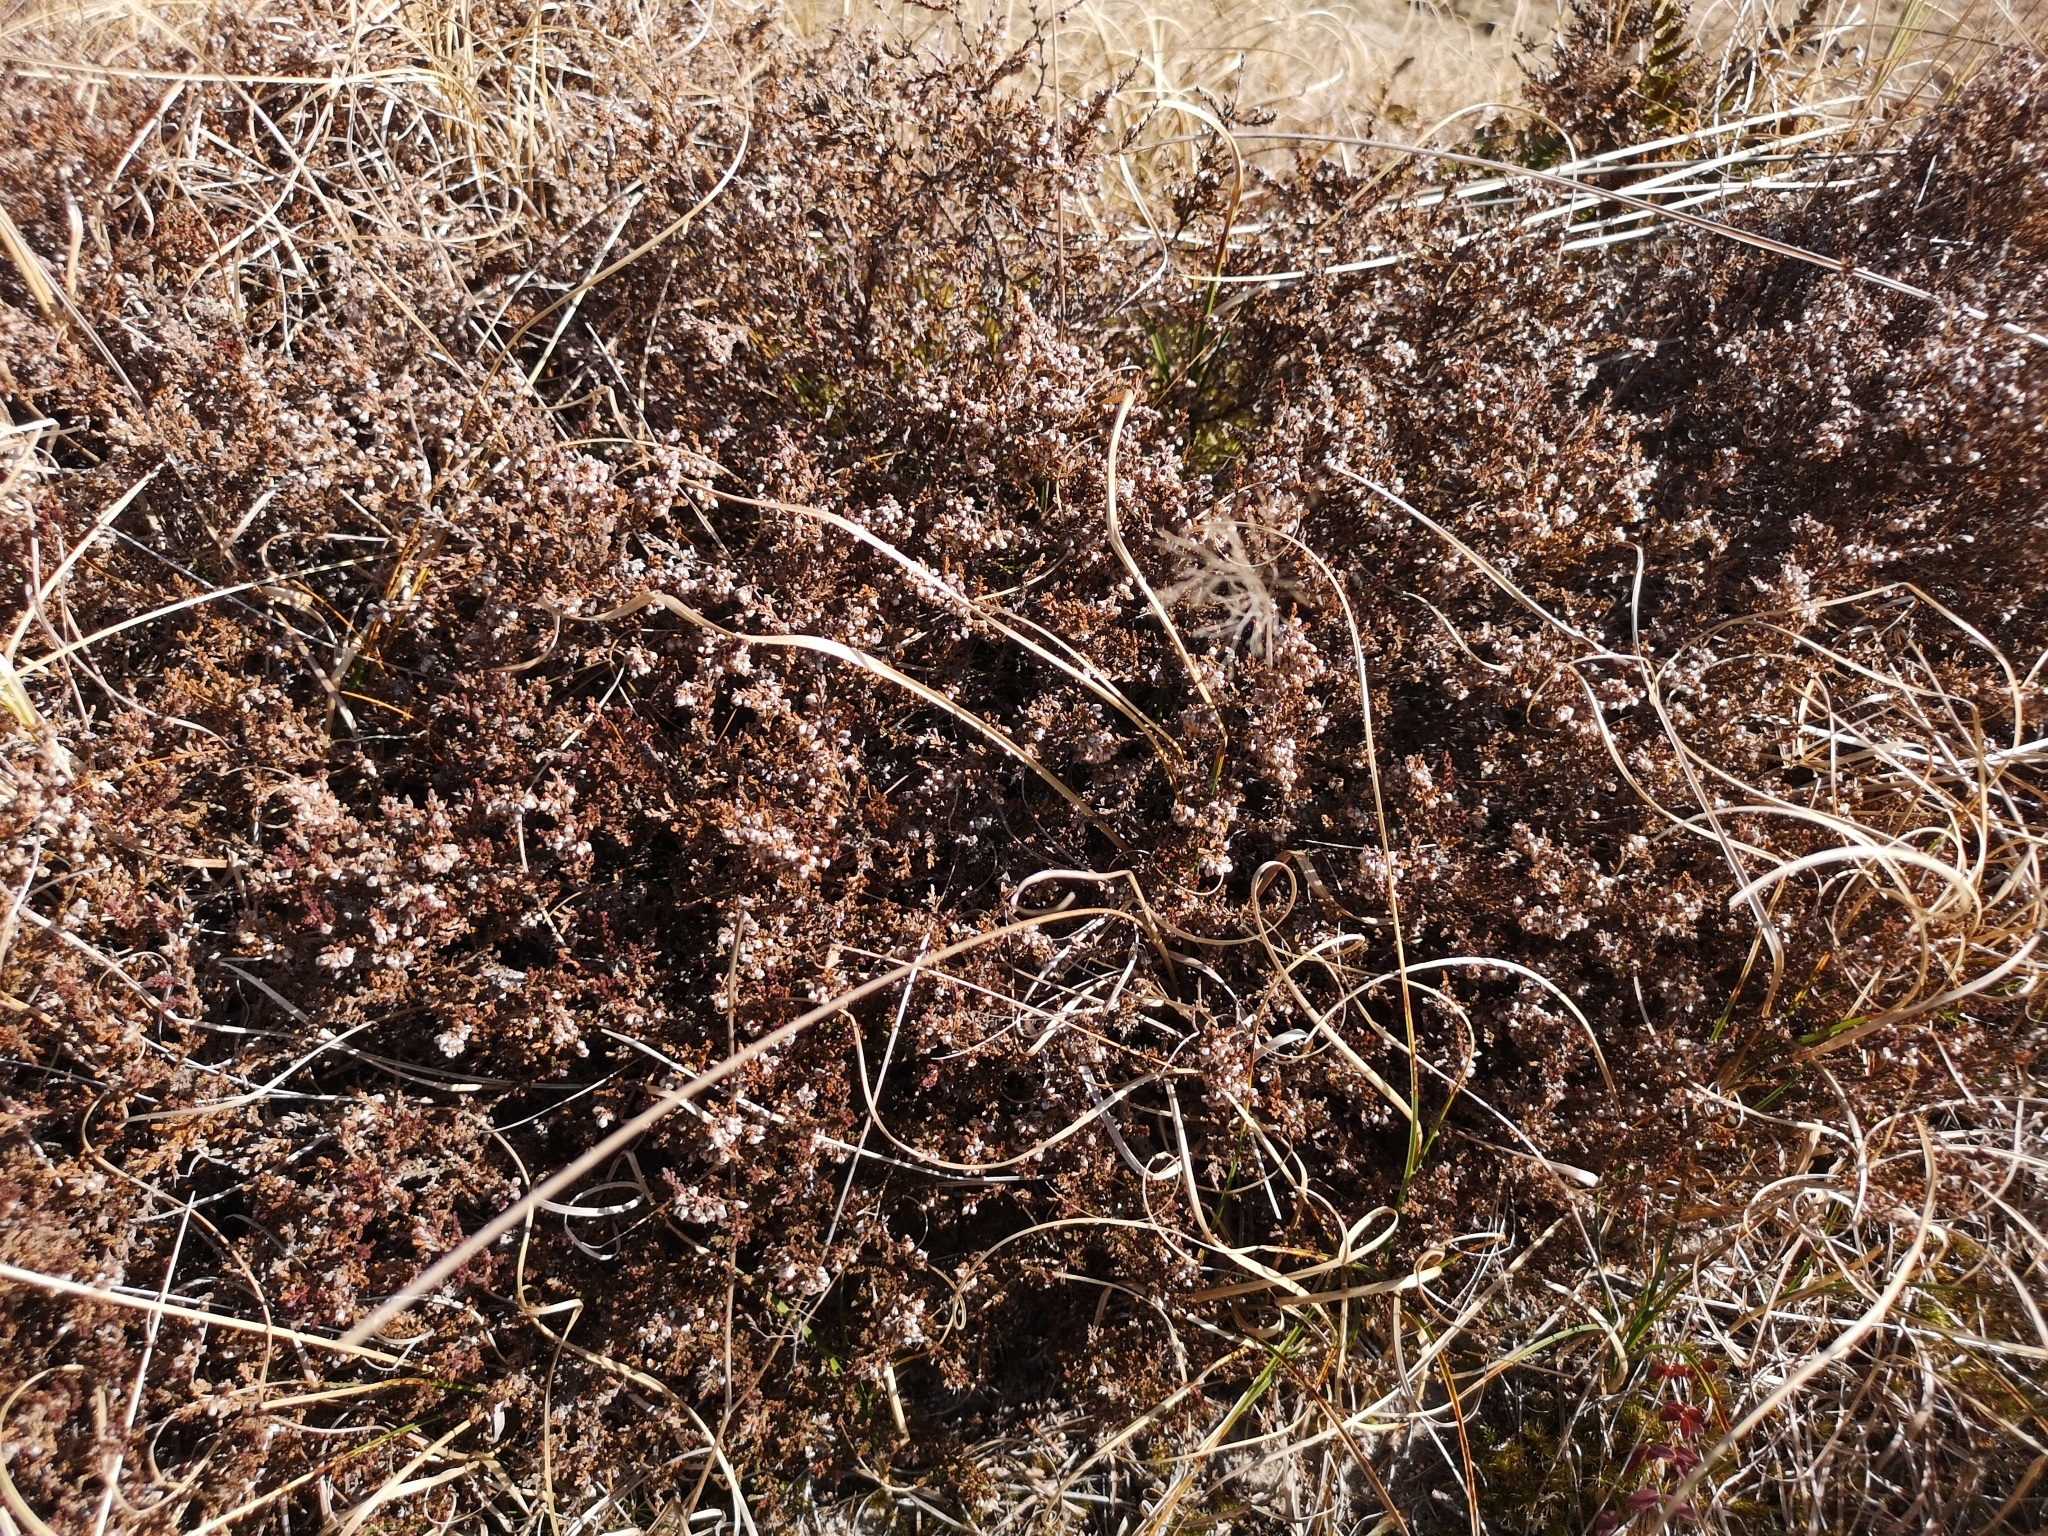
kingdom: Plantae
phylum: Tracheophyta
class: Magnoliopsida
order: Ericales
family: Ericaceae
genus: Calluna
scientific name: Calluna vulgaris
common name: Heather
